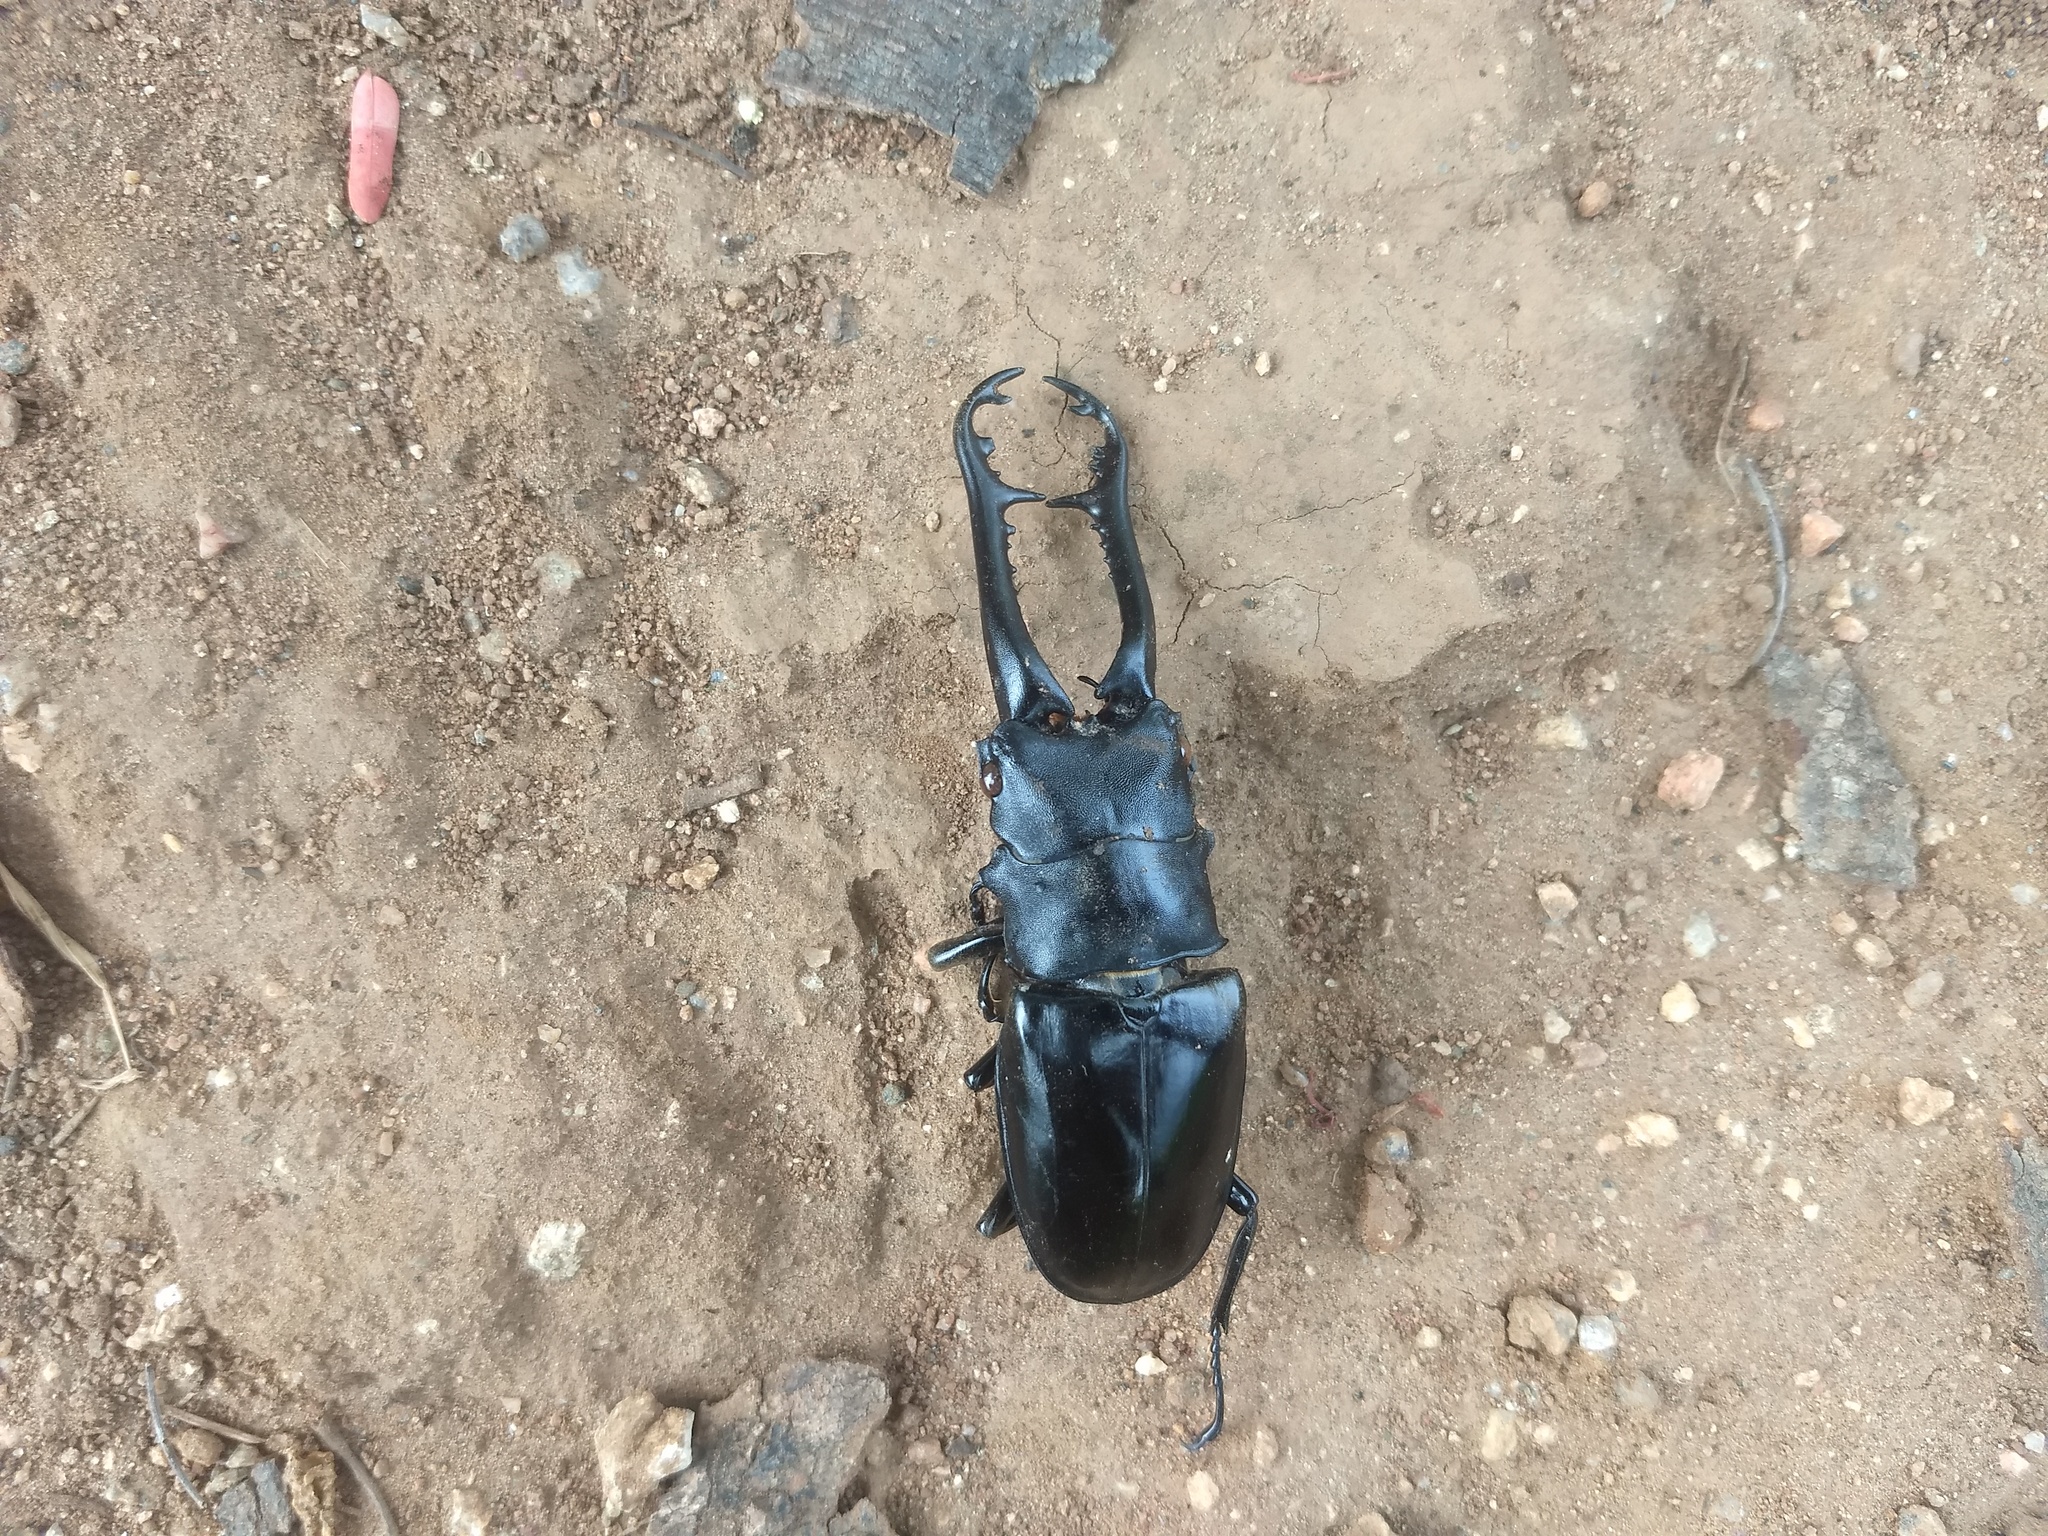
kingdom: Animalia
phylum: Arthropoda
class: Insecta
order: Coleoptera
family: Lucanidae
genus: Prosopocoilus
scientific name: Prosopocoilus girafa
